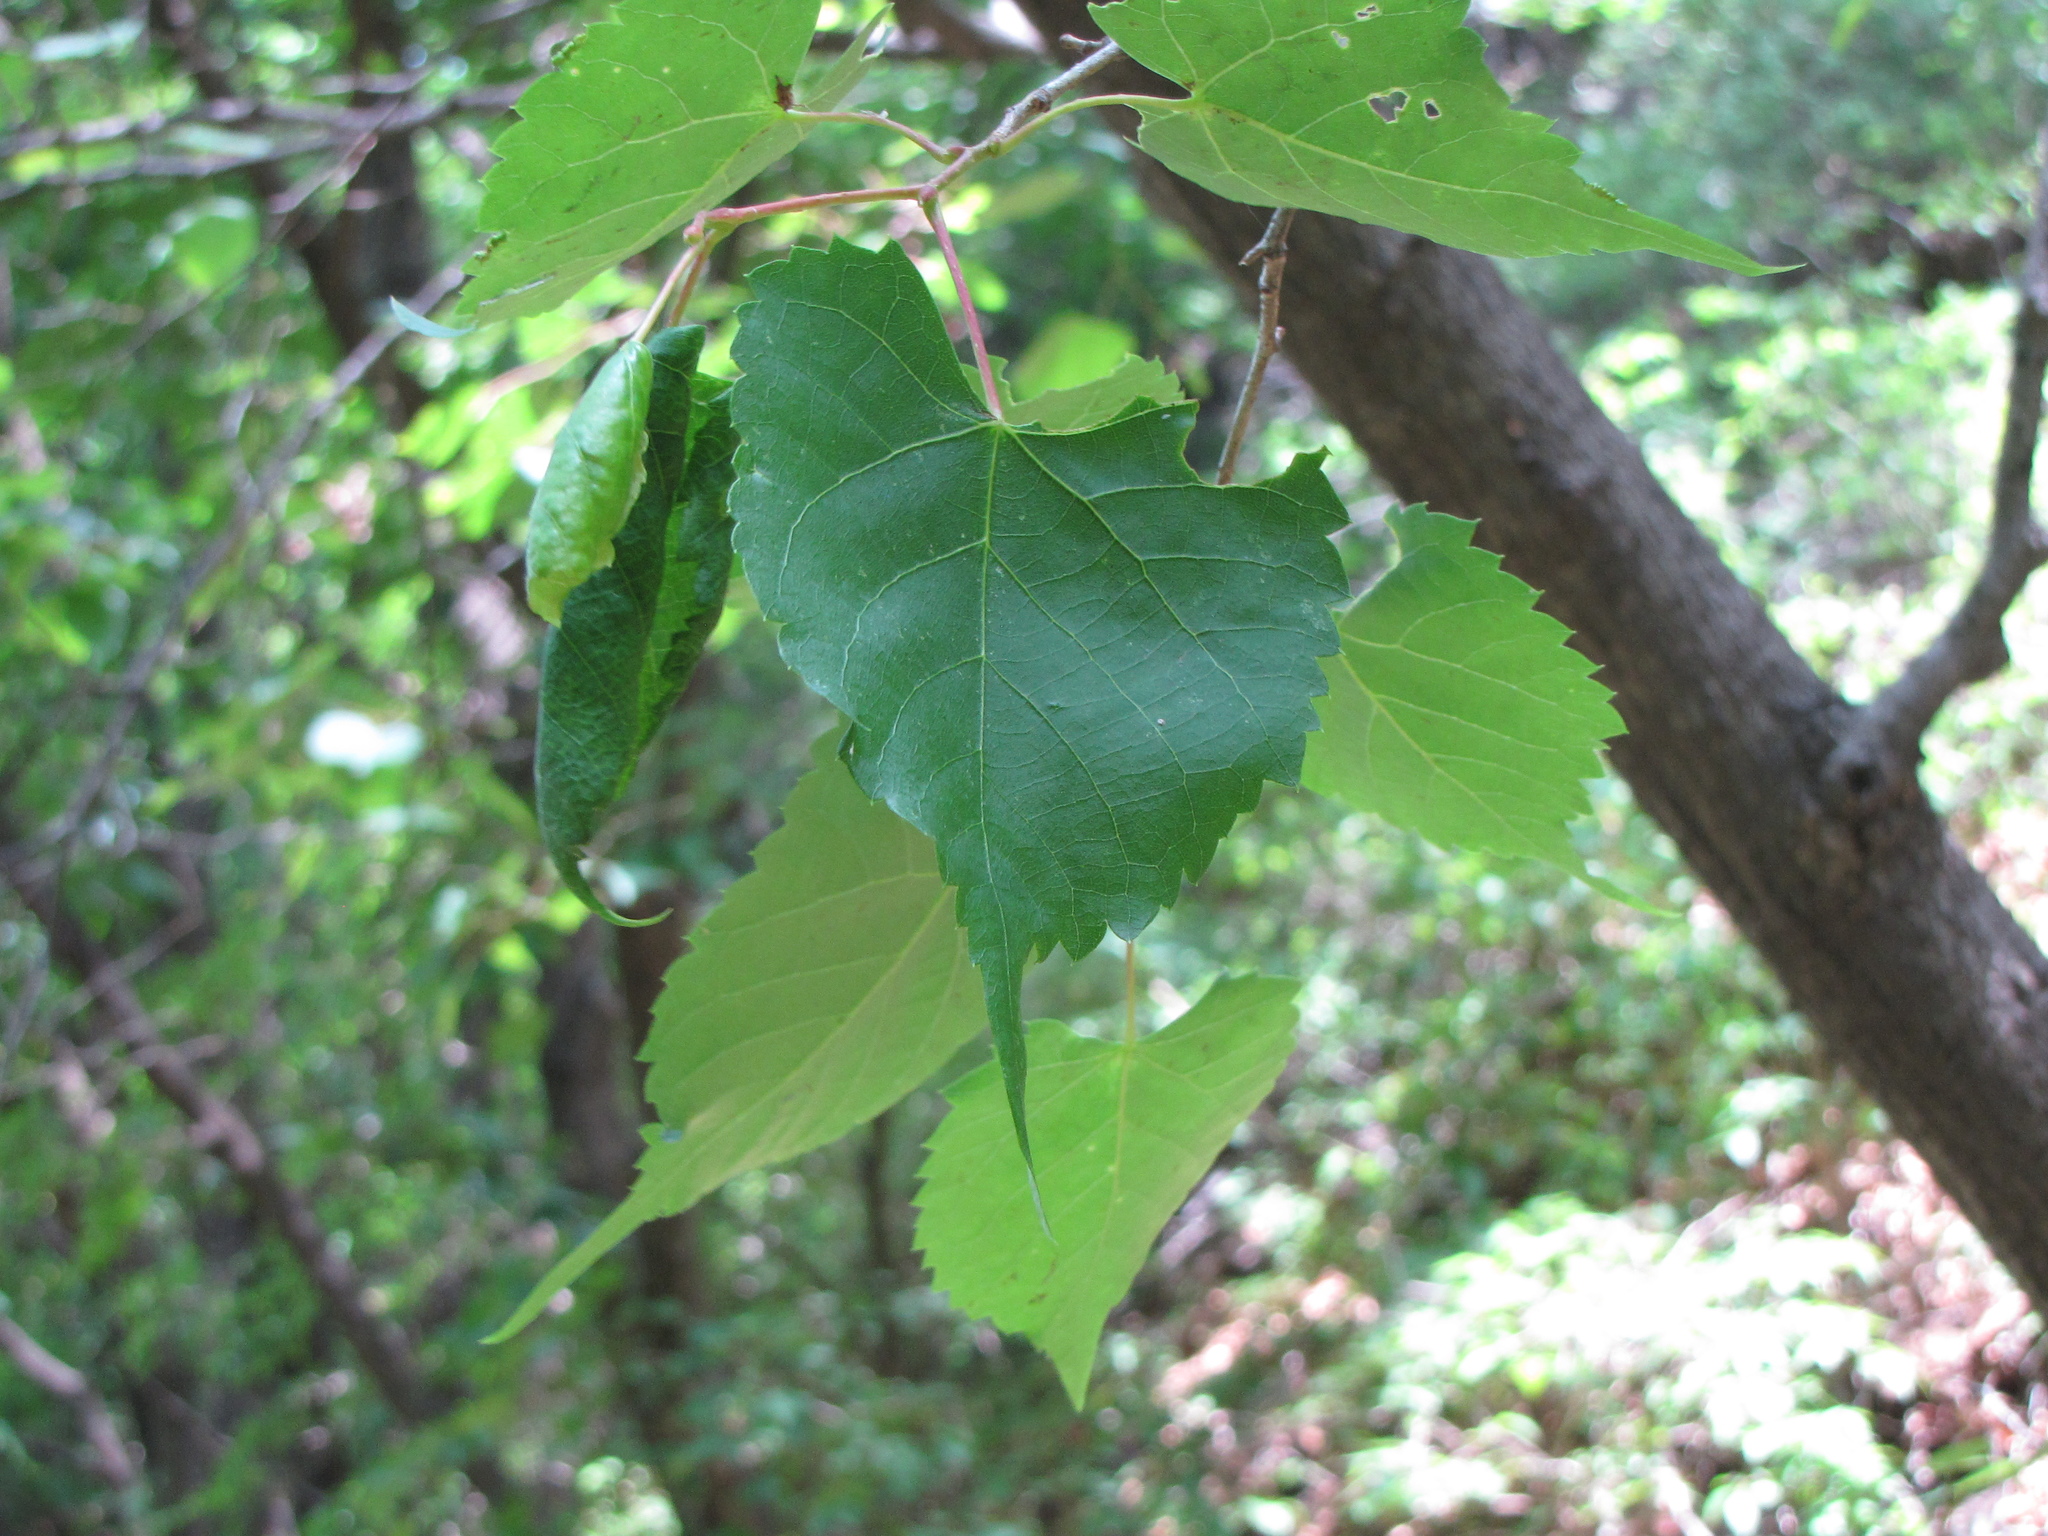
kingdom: Plantae
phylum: Tracheophyta
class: Magnoliopsida
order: Malvales
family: Malvaceae
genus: Tilia
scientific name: Tilia mongolica
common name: Mongolian lime
